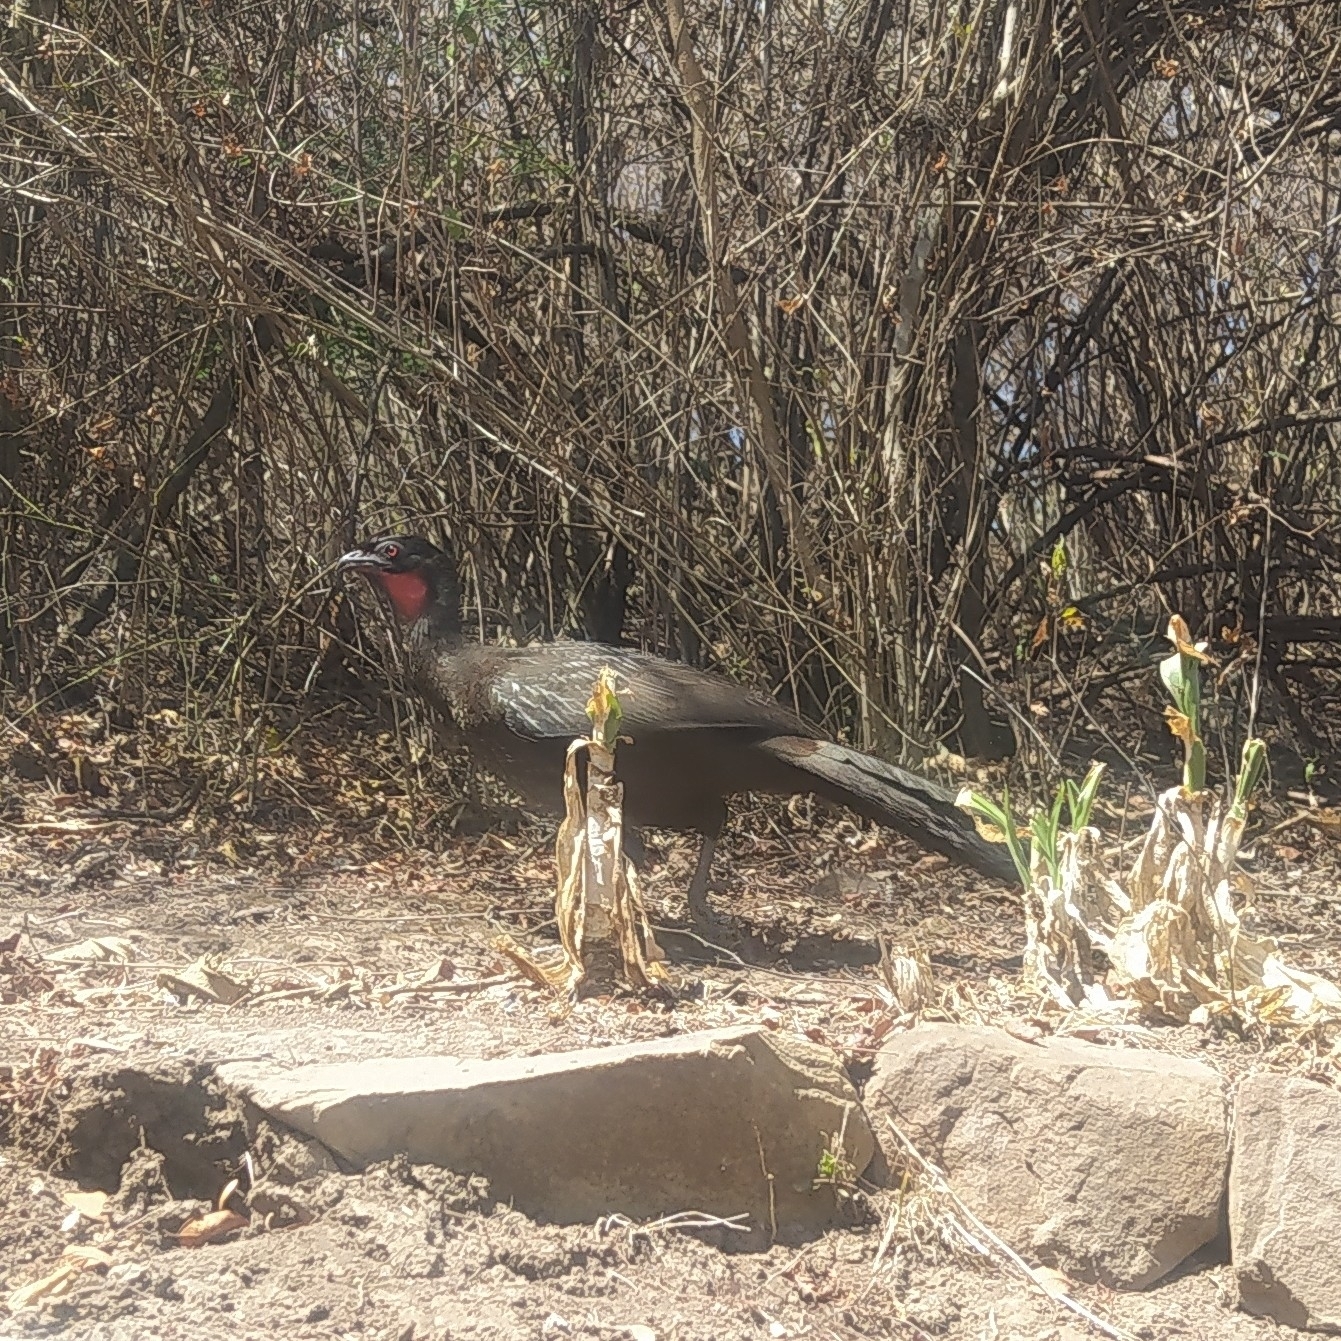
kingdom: Animalia
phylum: Chordata
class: Aves
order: Galliformes
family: Cracidae
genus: Penelope
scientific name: Penelope bridgesi
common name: Yungas guan
